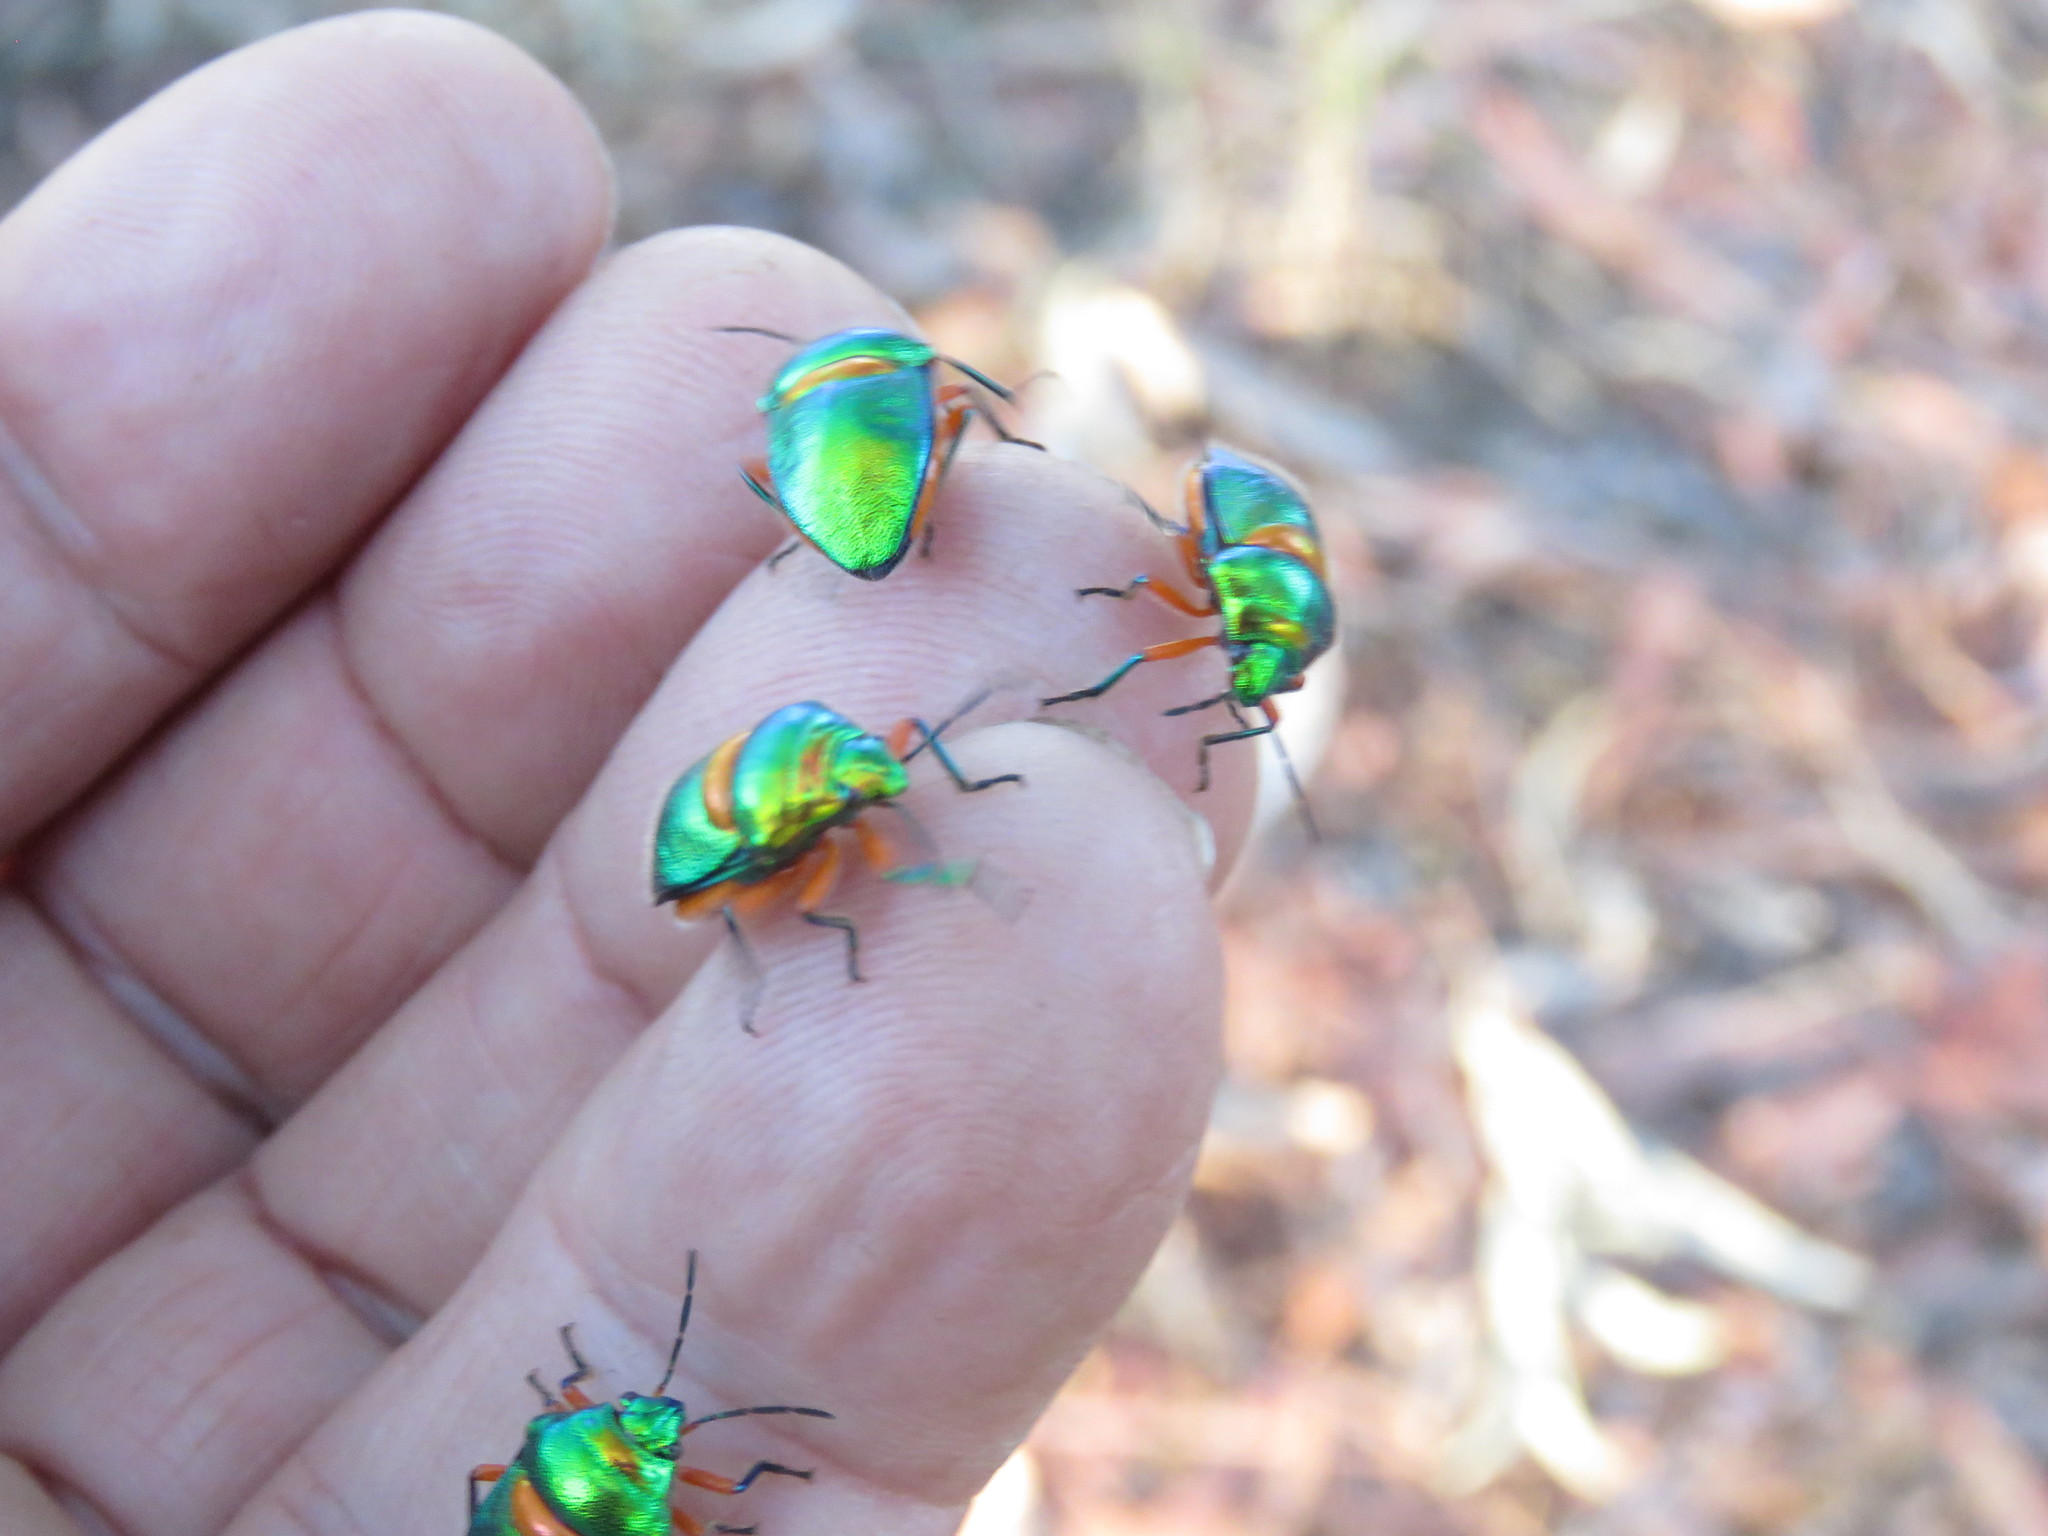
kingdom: Animalia
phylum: Arthropoda
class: Insecta
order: Hemiptera
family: Scutelleridae
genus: Lampromicra
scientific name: Lampromicra senator
